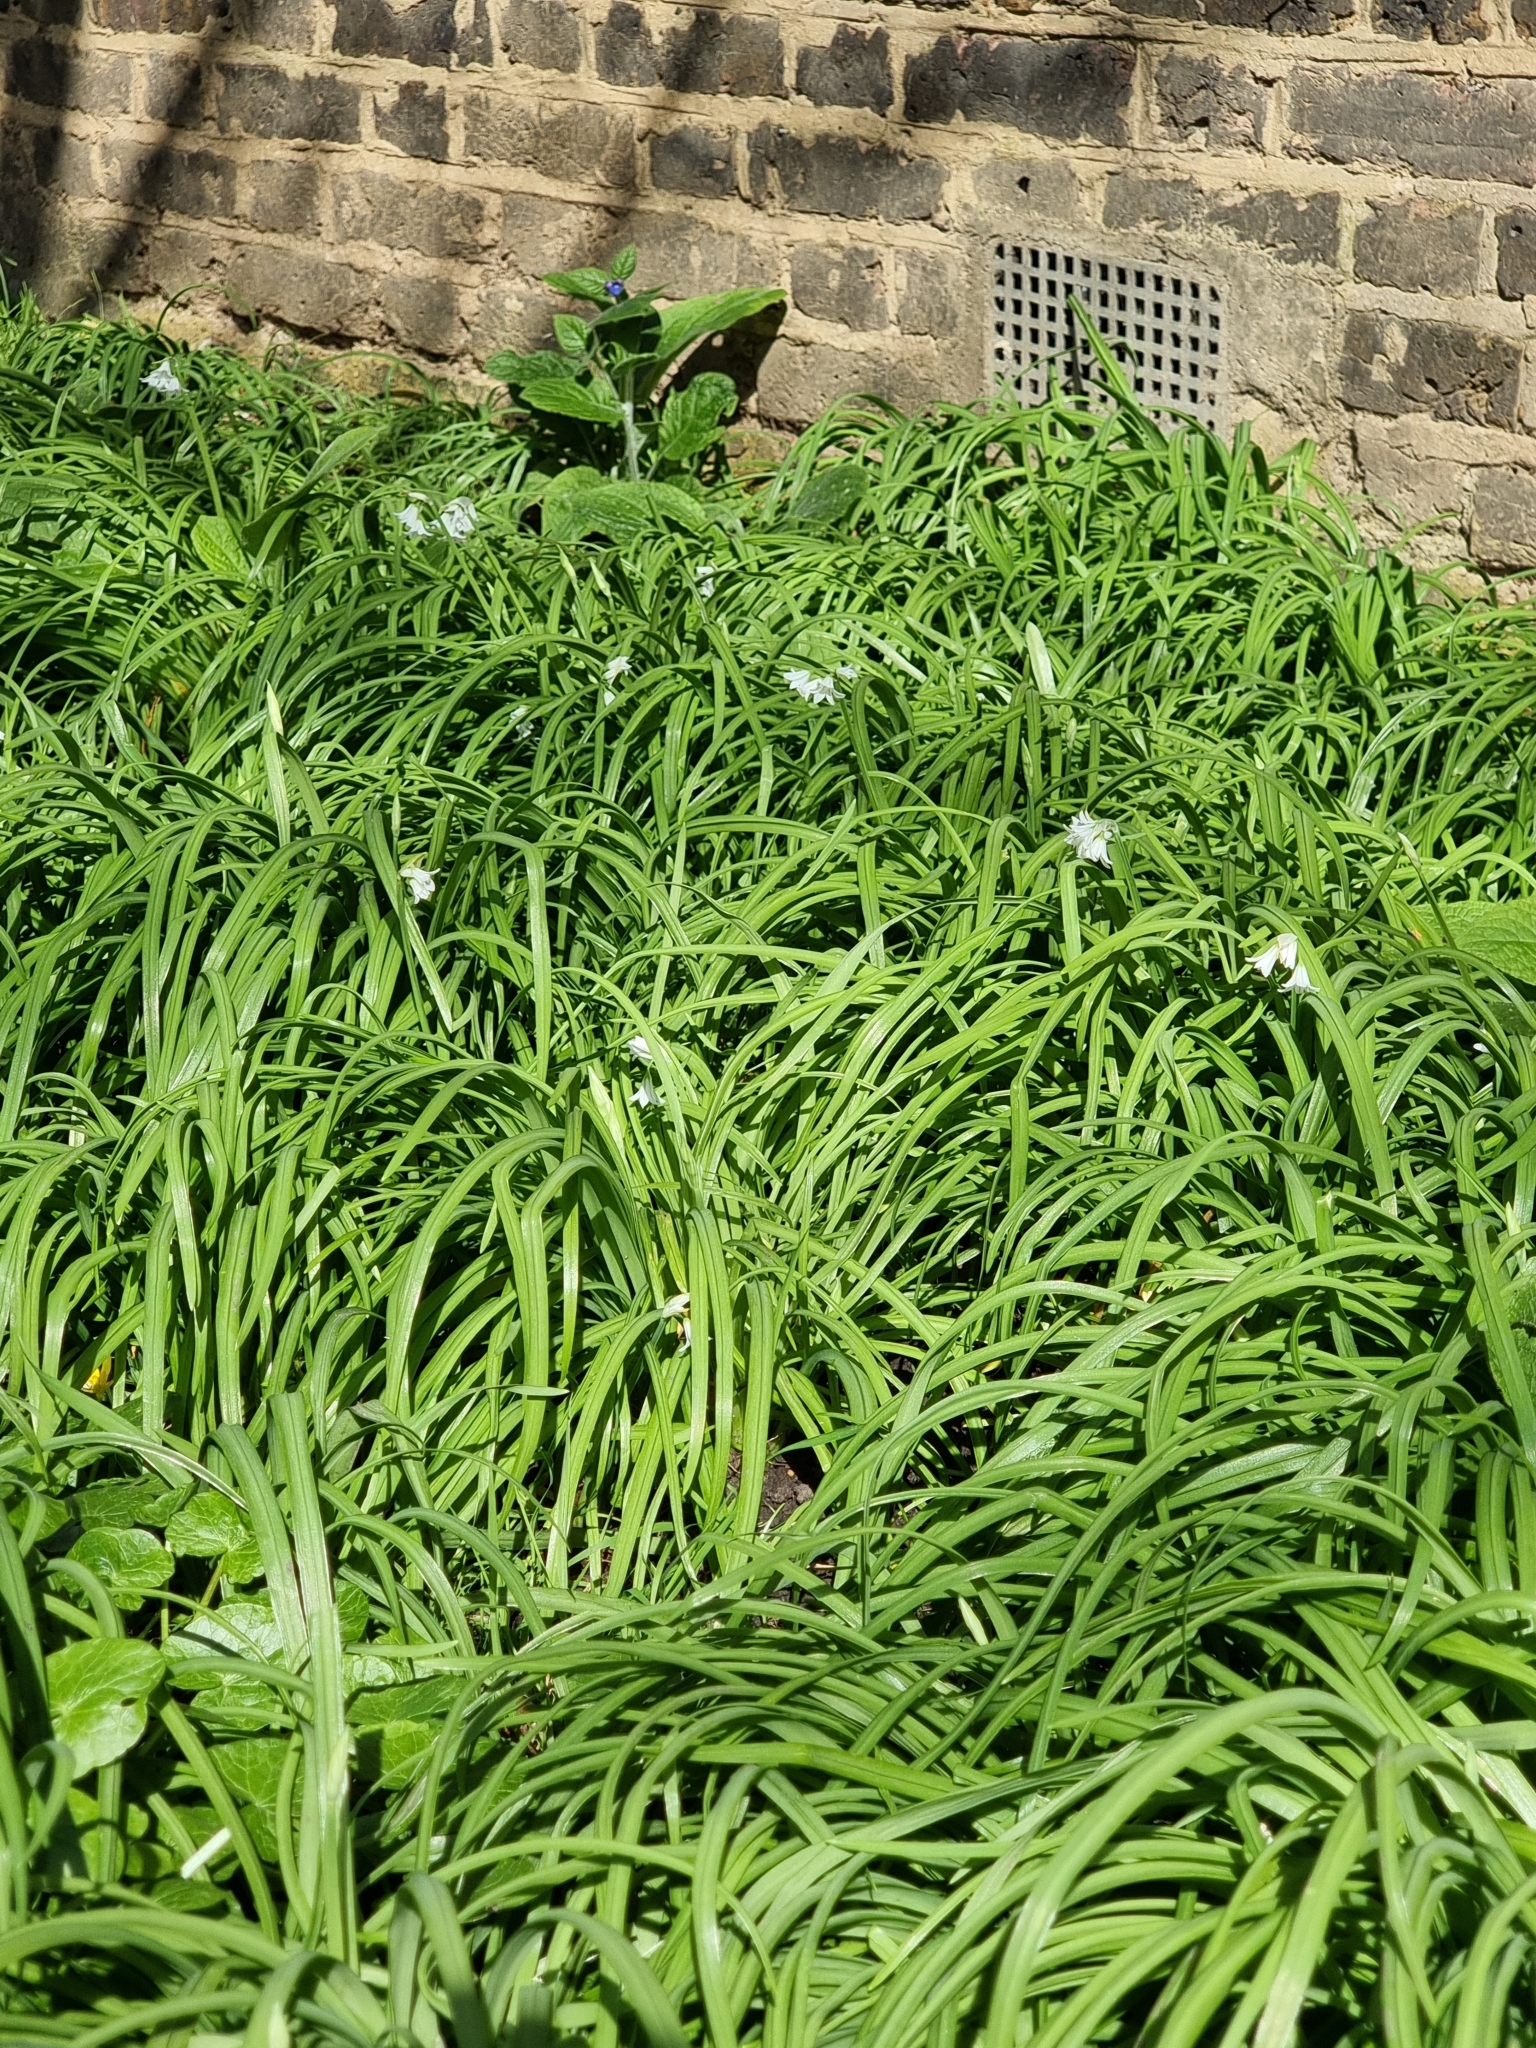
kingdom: Plantae
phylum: Tracheophyta
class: Liliopsida
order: Asparagales
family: Amaryllidaceae
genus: Allium
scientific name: Allium triquetrum
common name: Three-cornered garlic
